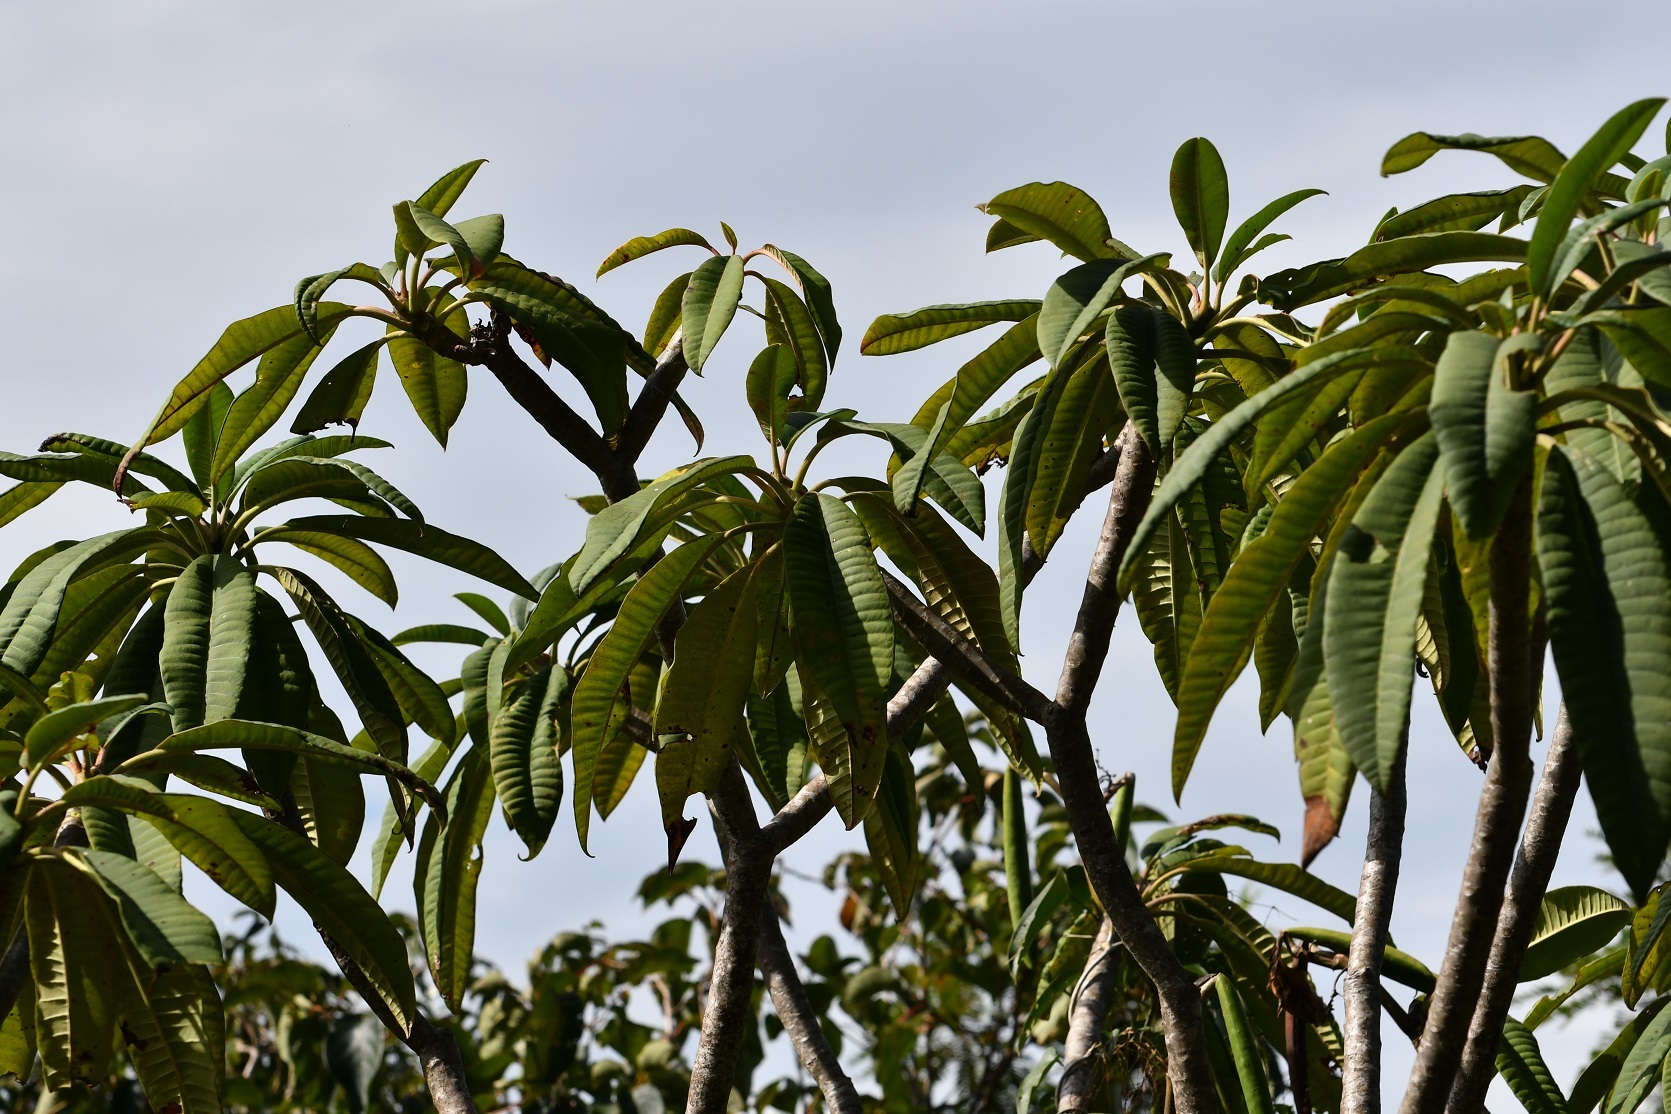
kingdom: Plantae
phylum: Tracheophyta
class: Magnoliopsida
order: Gentianales
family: Apocynaceae
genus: Plumeria
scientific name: Plumeria rubra
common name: Pagoda-tree
